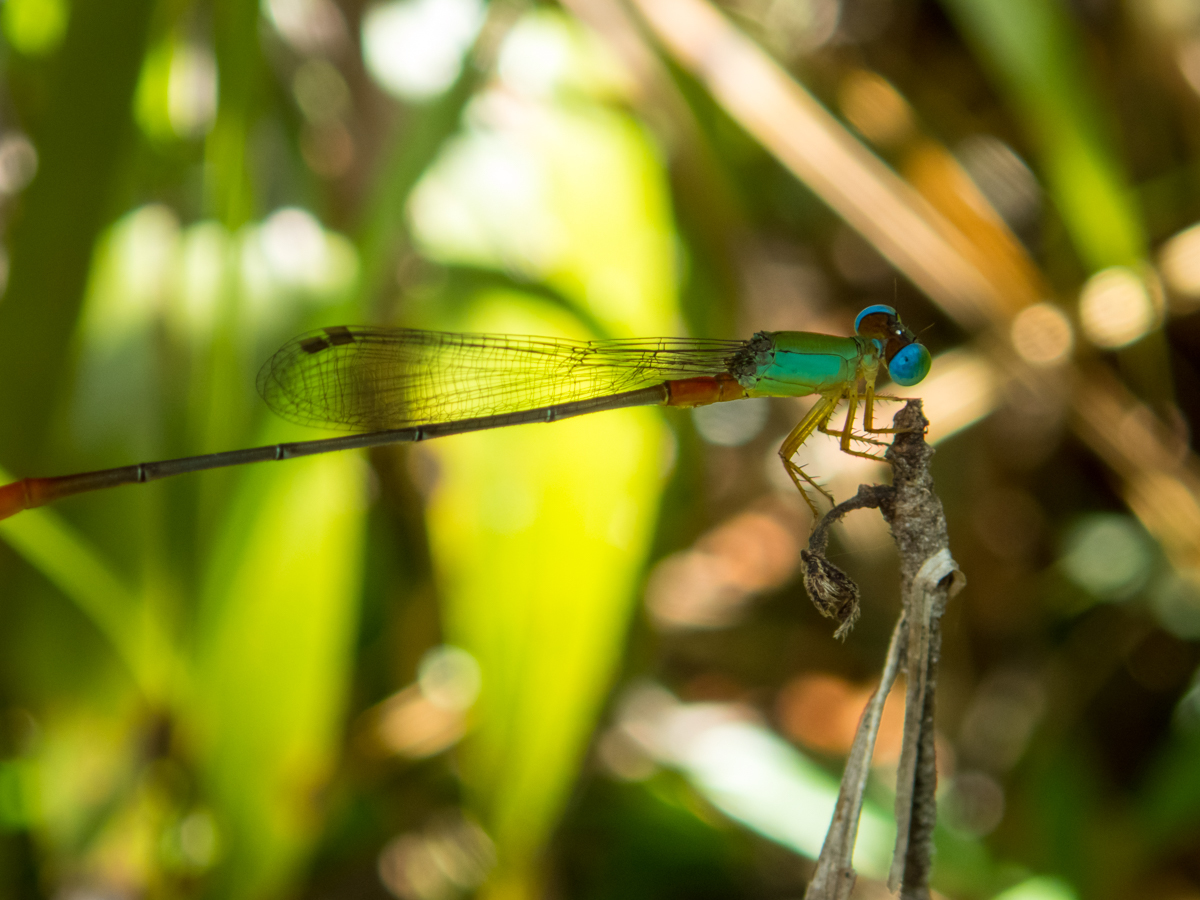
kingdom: Animalia
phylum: Arthropoda
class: Insecta
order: Odonata
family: Coenagrionidae
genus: Ceriagrion
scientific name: Ceriagrion cerinorubellum
